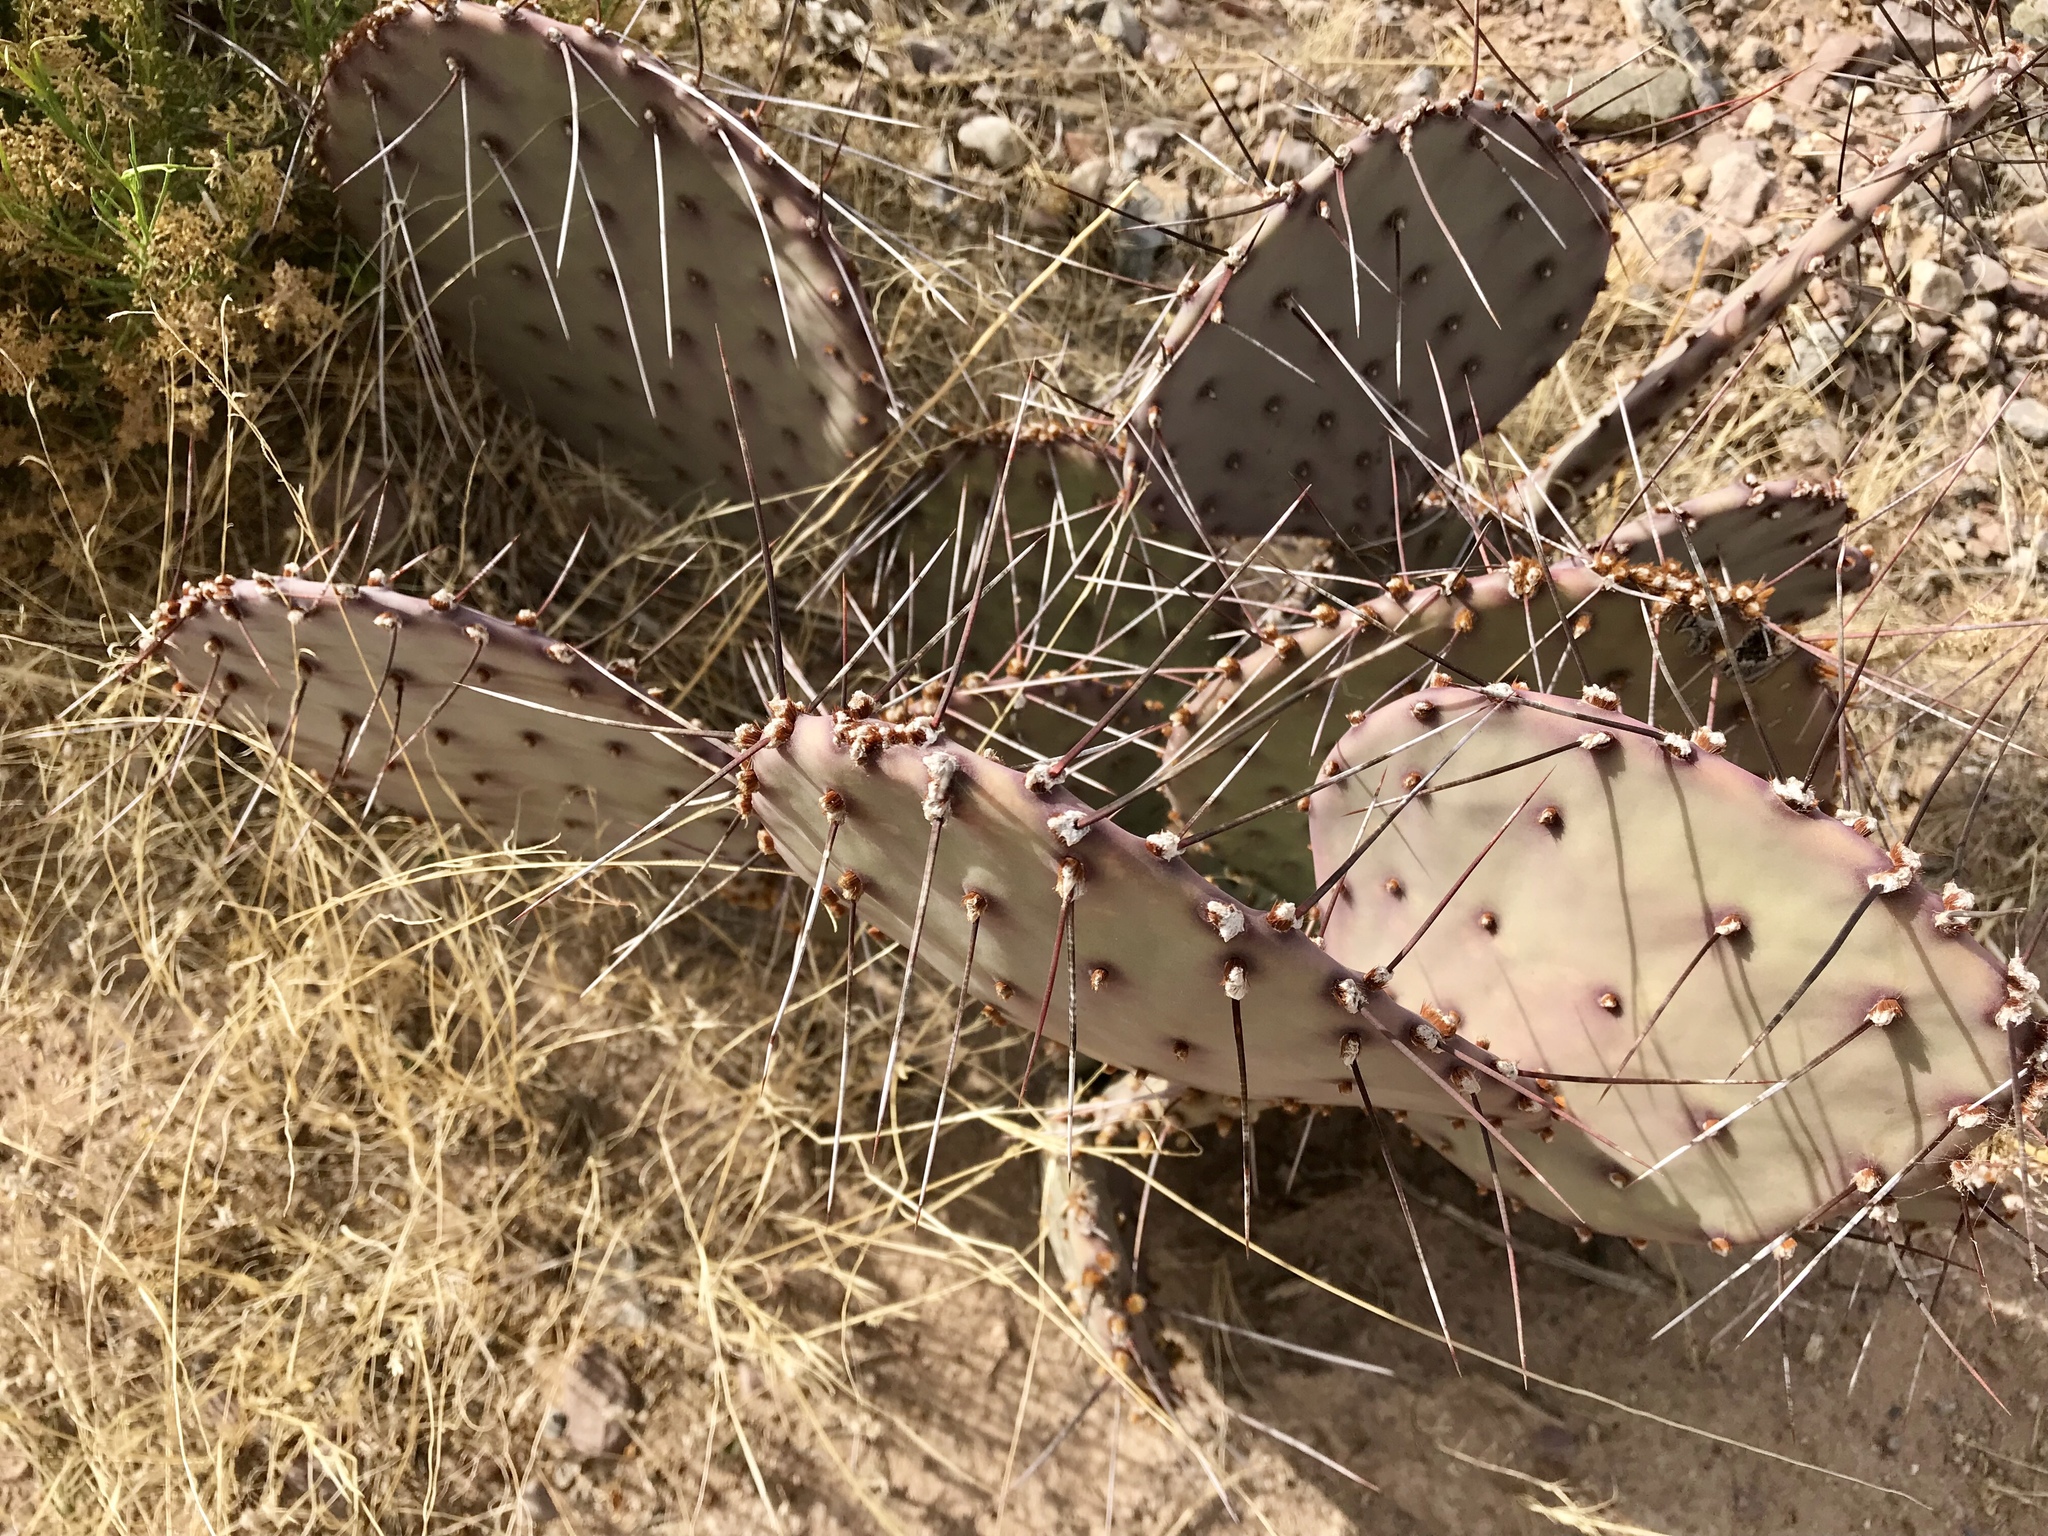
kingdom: Plantae
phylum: Tracheophyta
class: Magnoliopsida
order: Caryophyllales
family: Cactaceae
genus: Opuntia
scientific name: Opuntia macrocentra
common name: Purple prickly-pear
